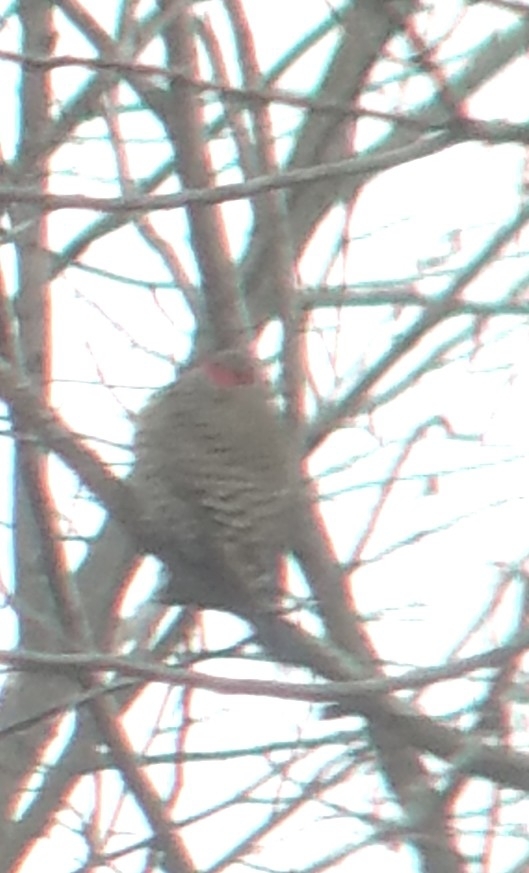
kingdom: Animalia
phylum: Chordata
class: Aves
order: Piciformes
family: Picidae
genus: Colaptes
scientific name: Colaptes auratus
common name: Northern flicker
